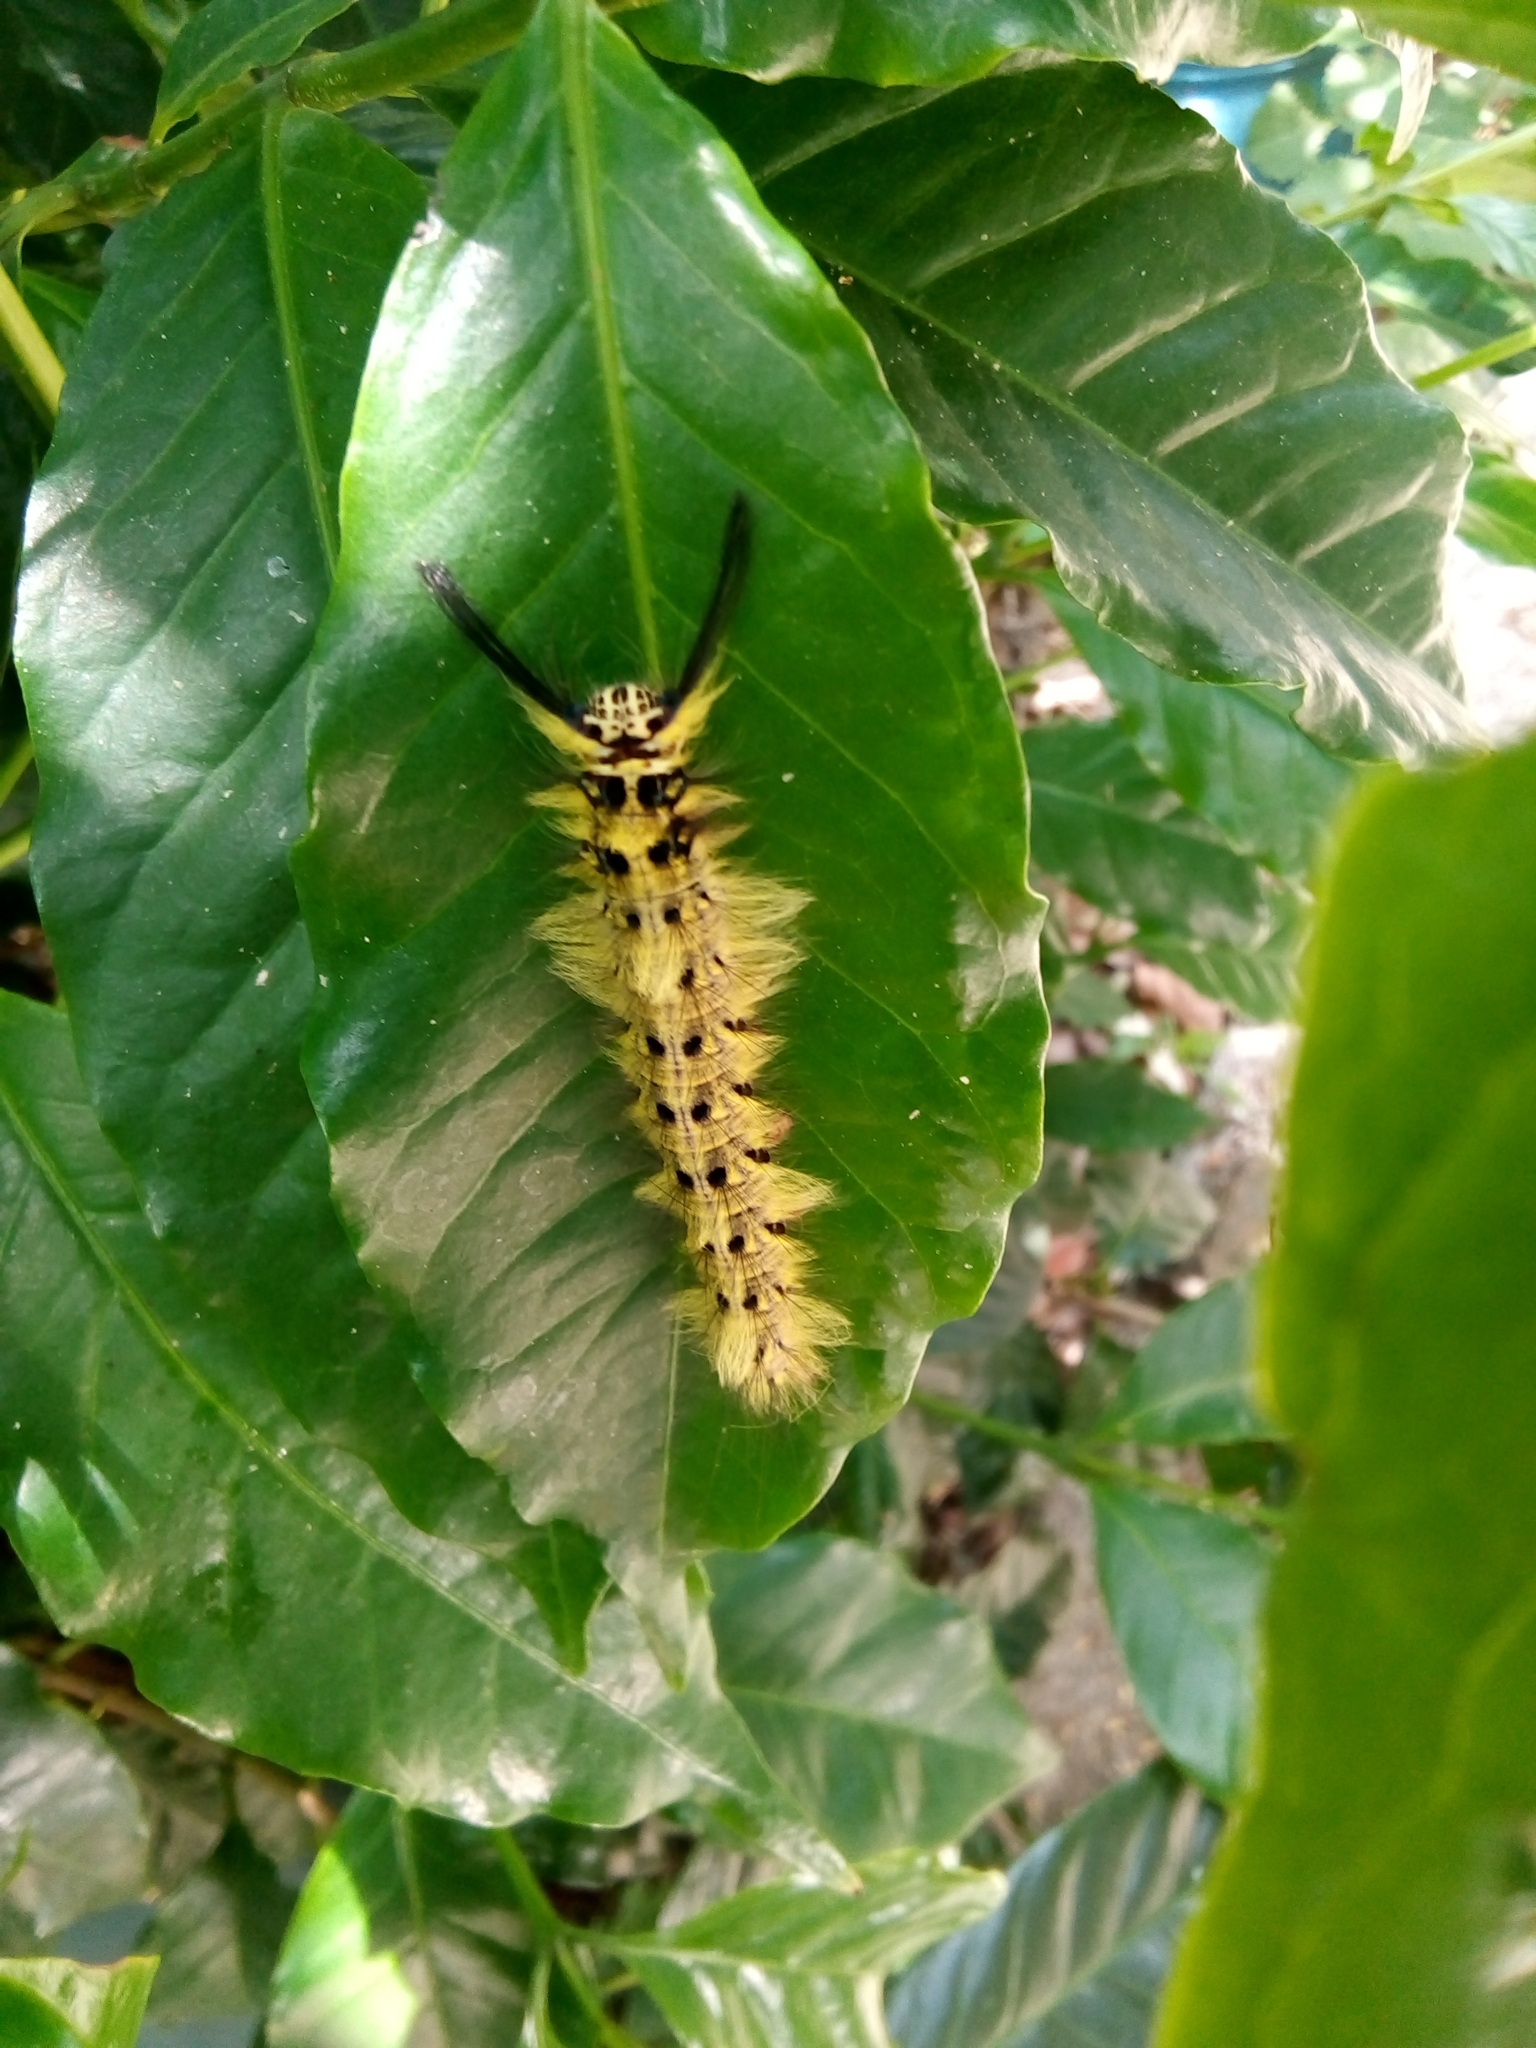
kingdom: Animalia
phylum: Arthropoda
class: Insecta
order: Lepidoptera
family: Lasiocampidae
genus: Trabala
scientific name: Trabala vishnou
